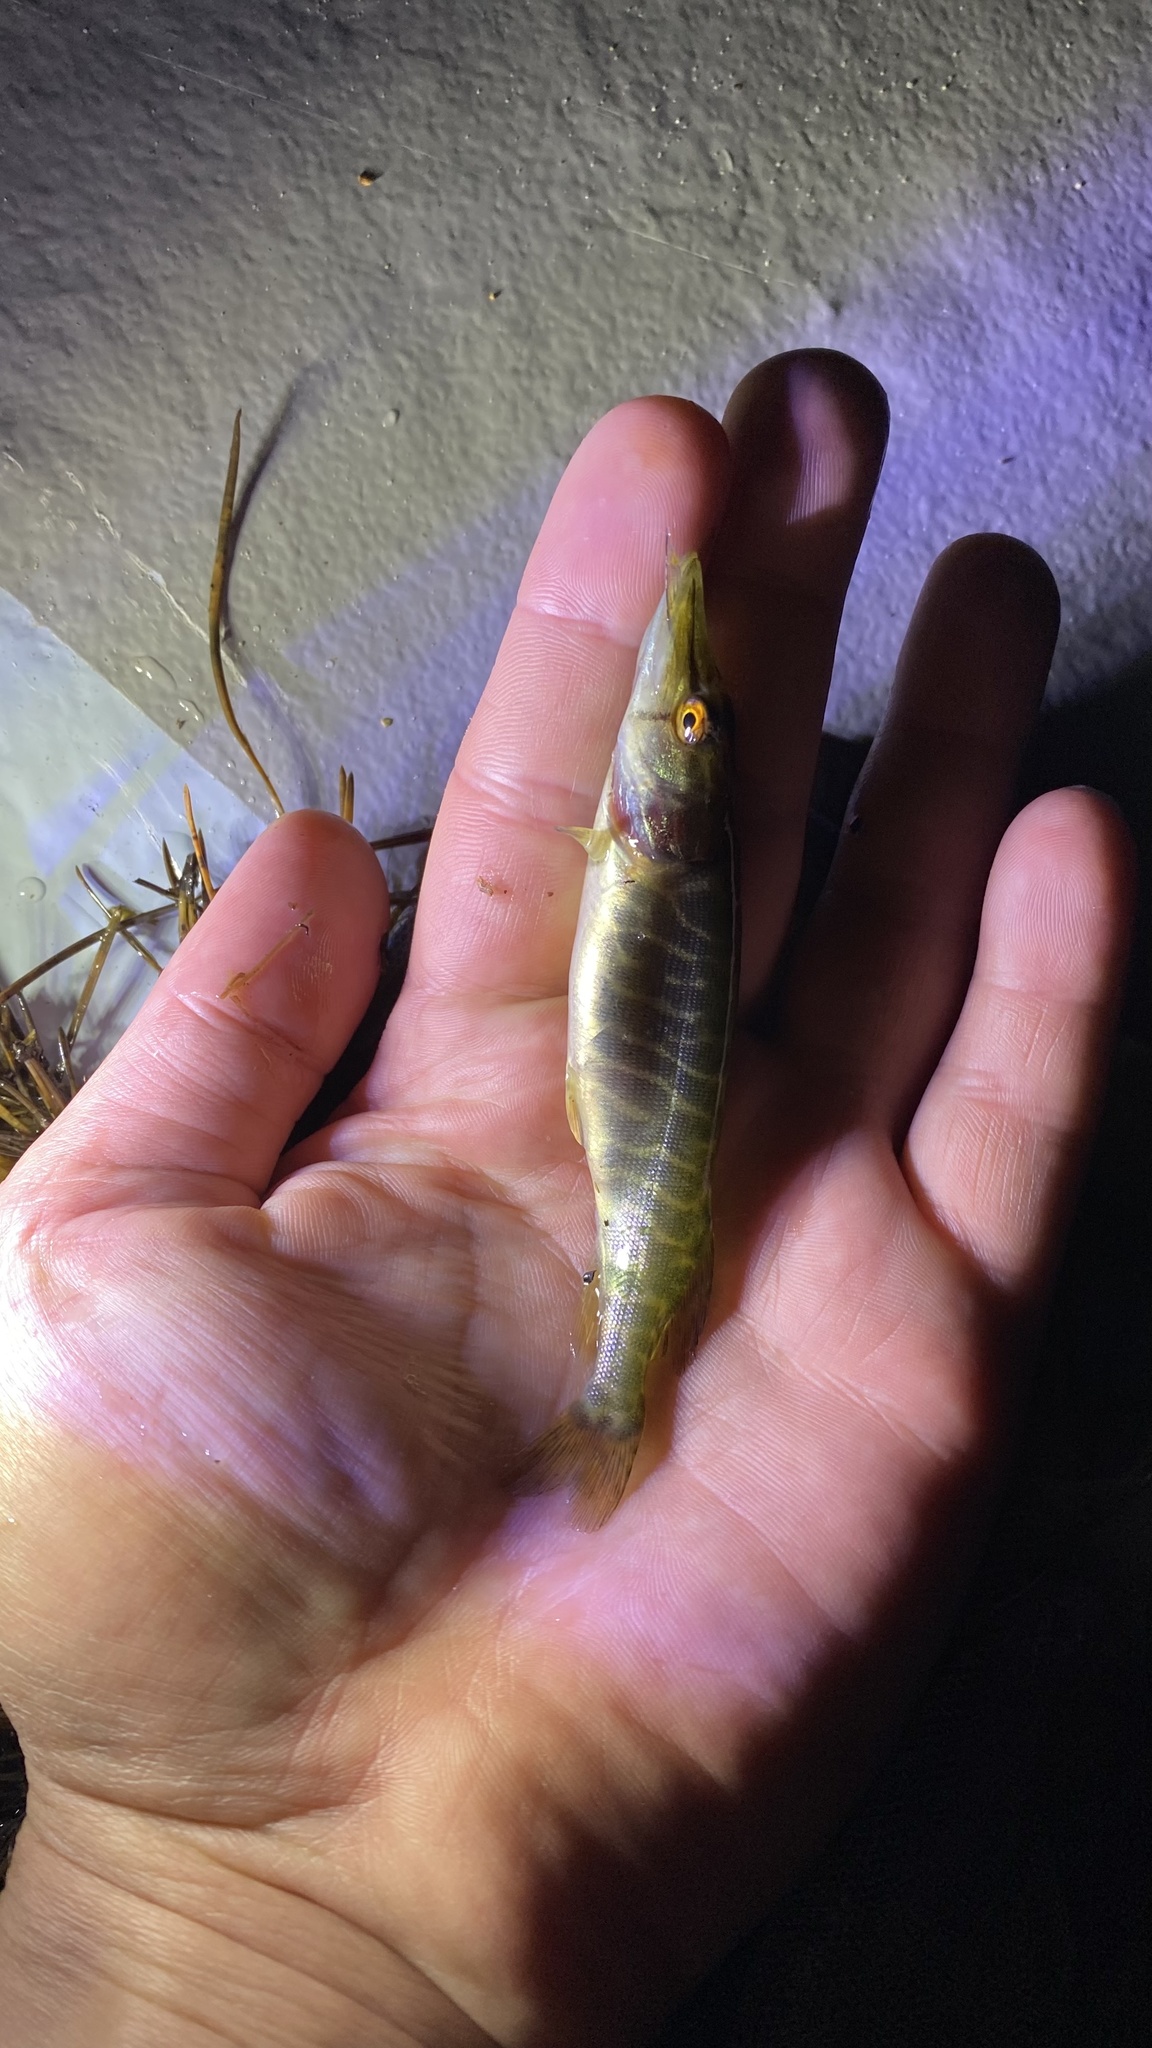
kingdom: Animalia
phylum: Chordata
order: Esociformes
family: Esocidae
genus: Esox
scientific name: Esox lucius
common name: Northern pike
